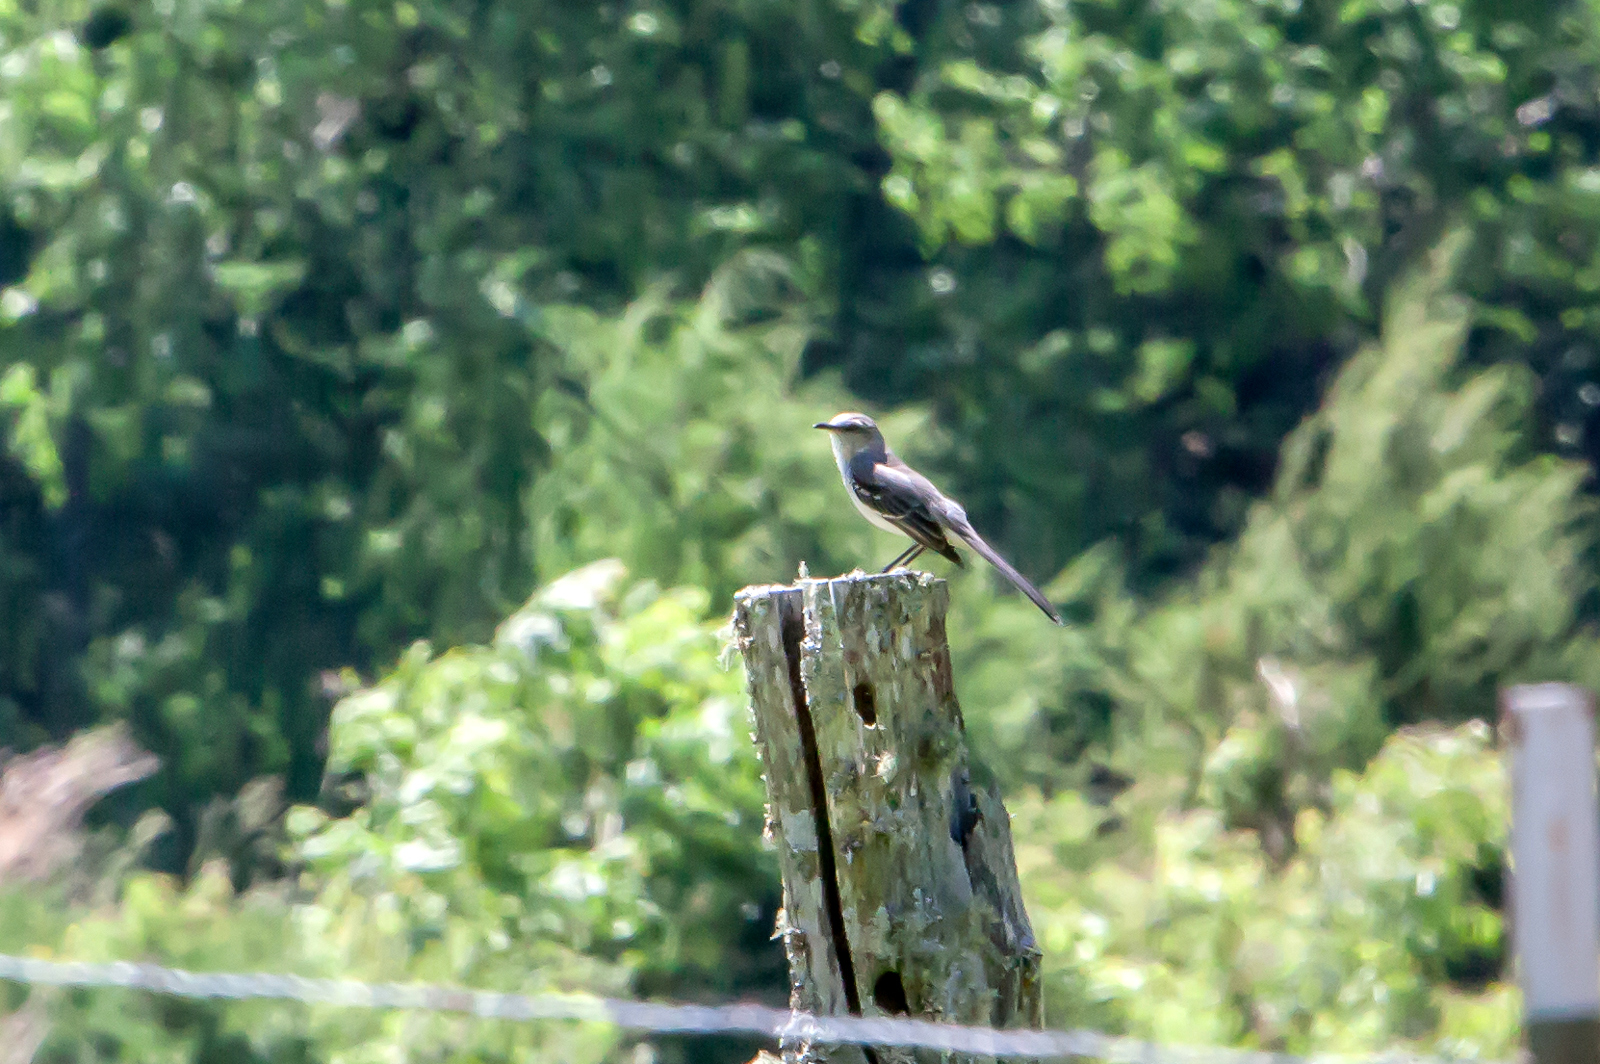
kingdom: Animalia
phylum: Chordata
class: Aves
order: Passeriformes
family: Mimidae
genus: Mimus
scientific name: Mimus polyglottos
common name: Northern mockingbird
